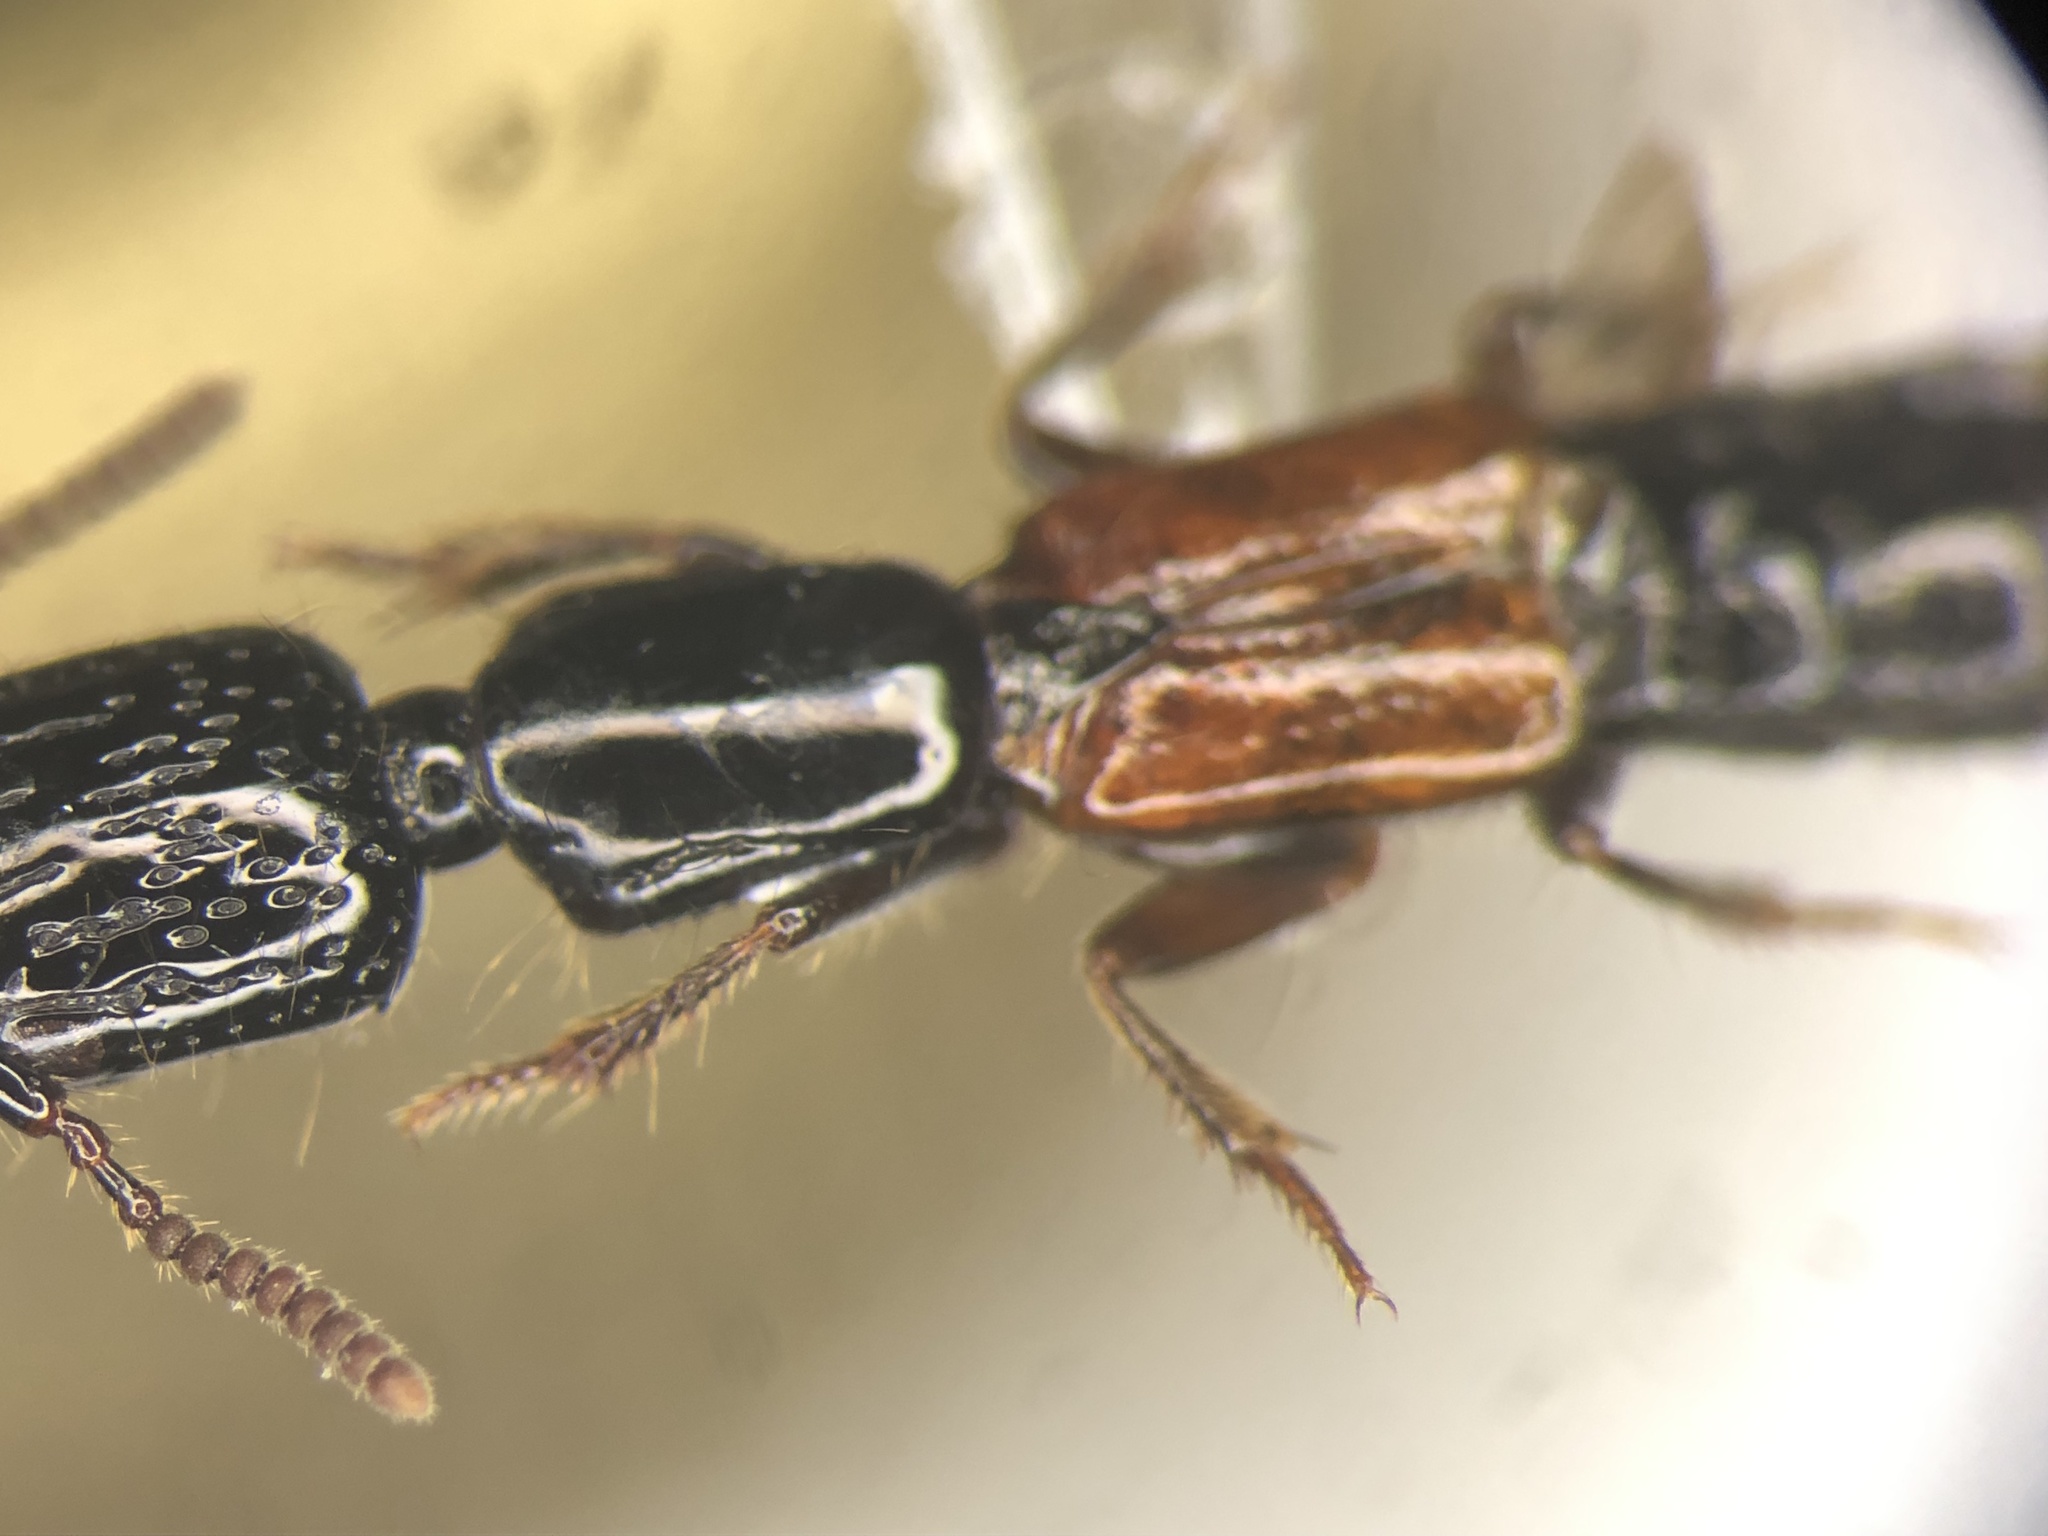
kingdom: Animalia
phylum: Arthropoda
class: Insecta
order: Coleoptera
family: Staphylinidae
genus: Gauropterus
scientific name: Gauropterus fulgidus
